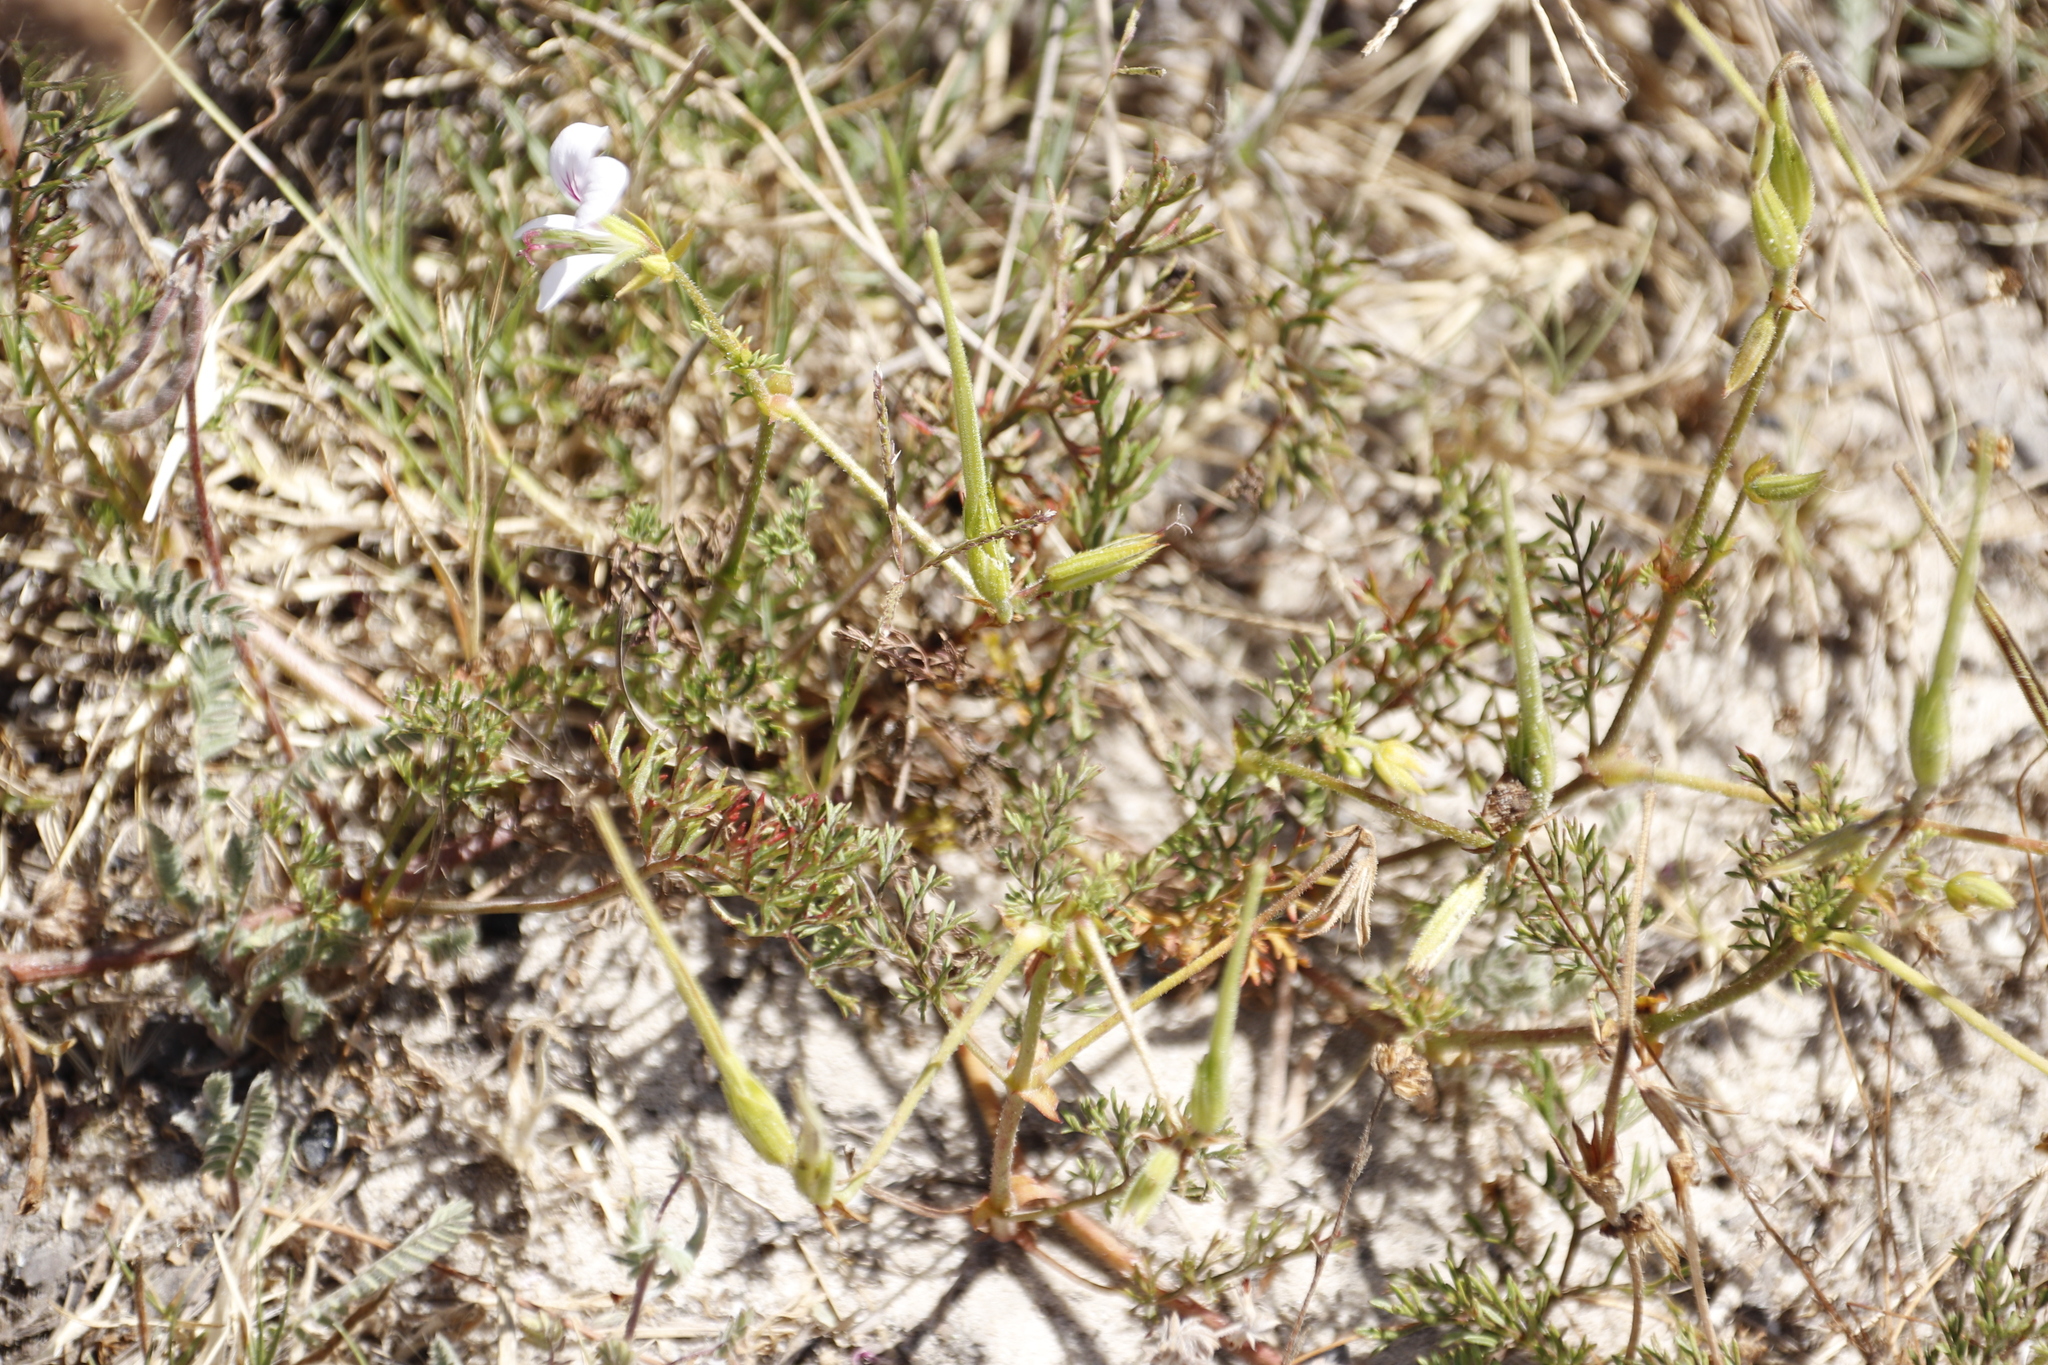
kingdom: Plantae
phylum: Tracheophyta
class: Magnoliopsida
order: Geraniales
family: Geraniaceae
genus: Pelargonium
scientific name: Pelargonium myrrhifolium
